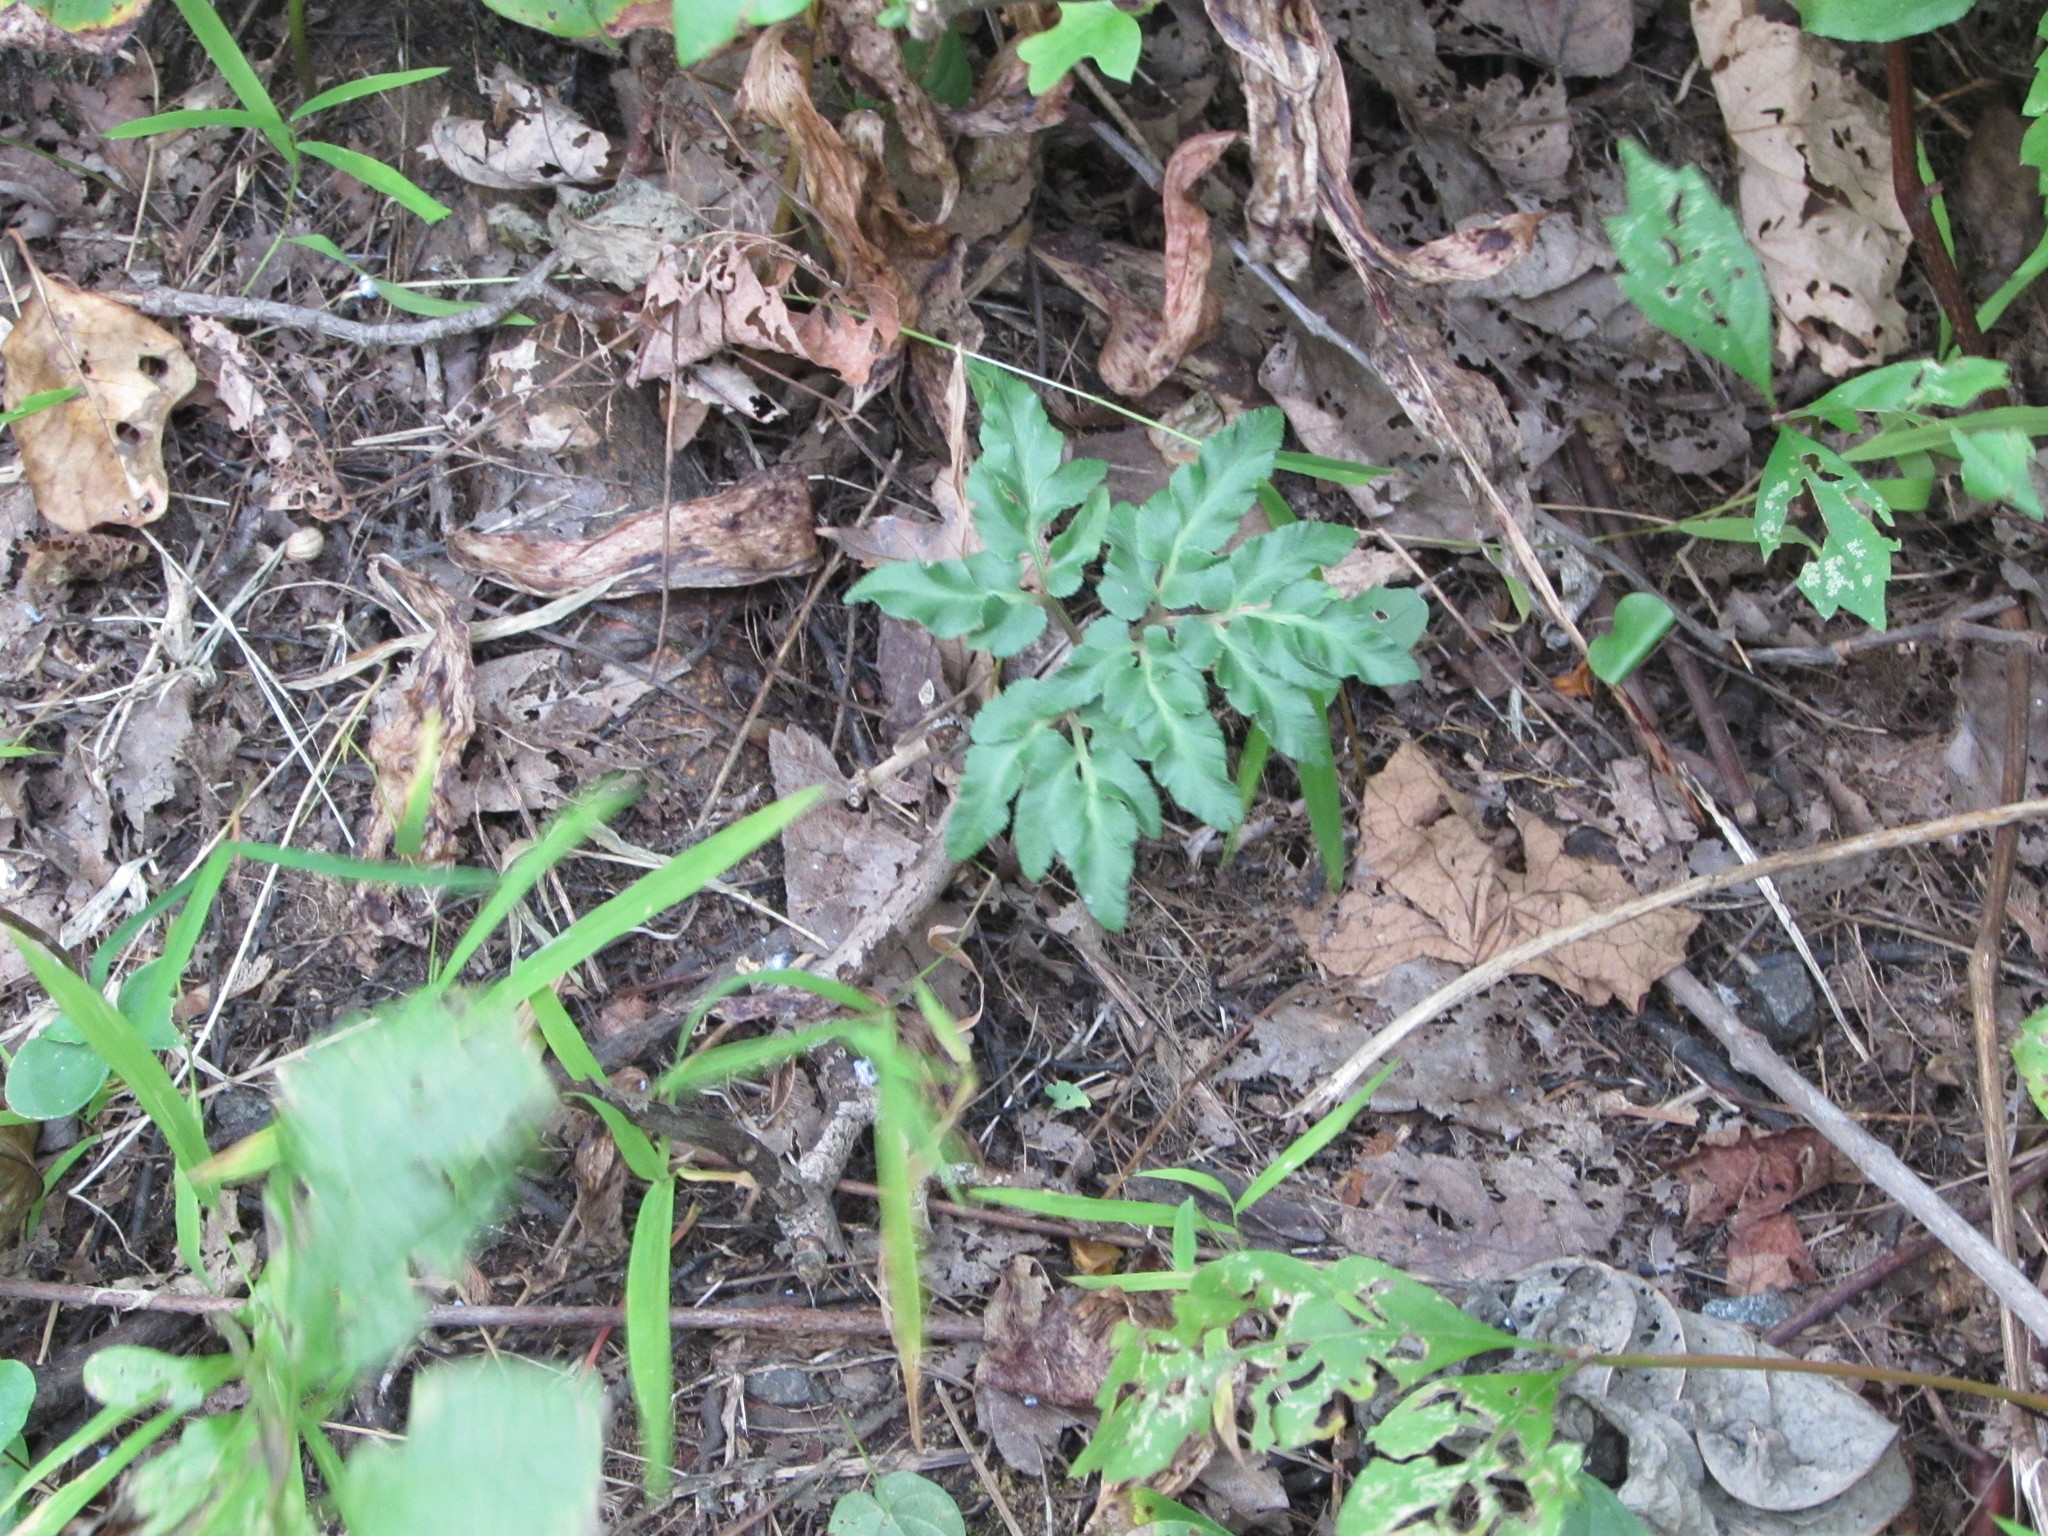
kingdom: Plantae
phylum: Tracheophyta
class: Polypodiopsida
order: Ophioglossales
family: Ophioglossaceae
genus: Sceptridium
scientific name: Sceptridium dissectum
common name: Cut-leaved grapefern
